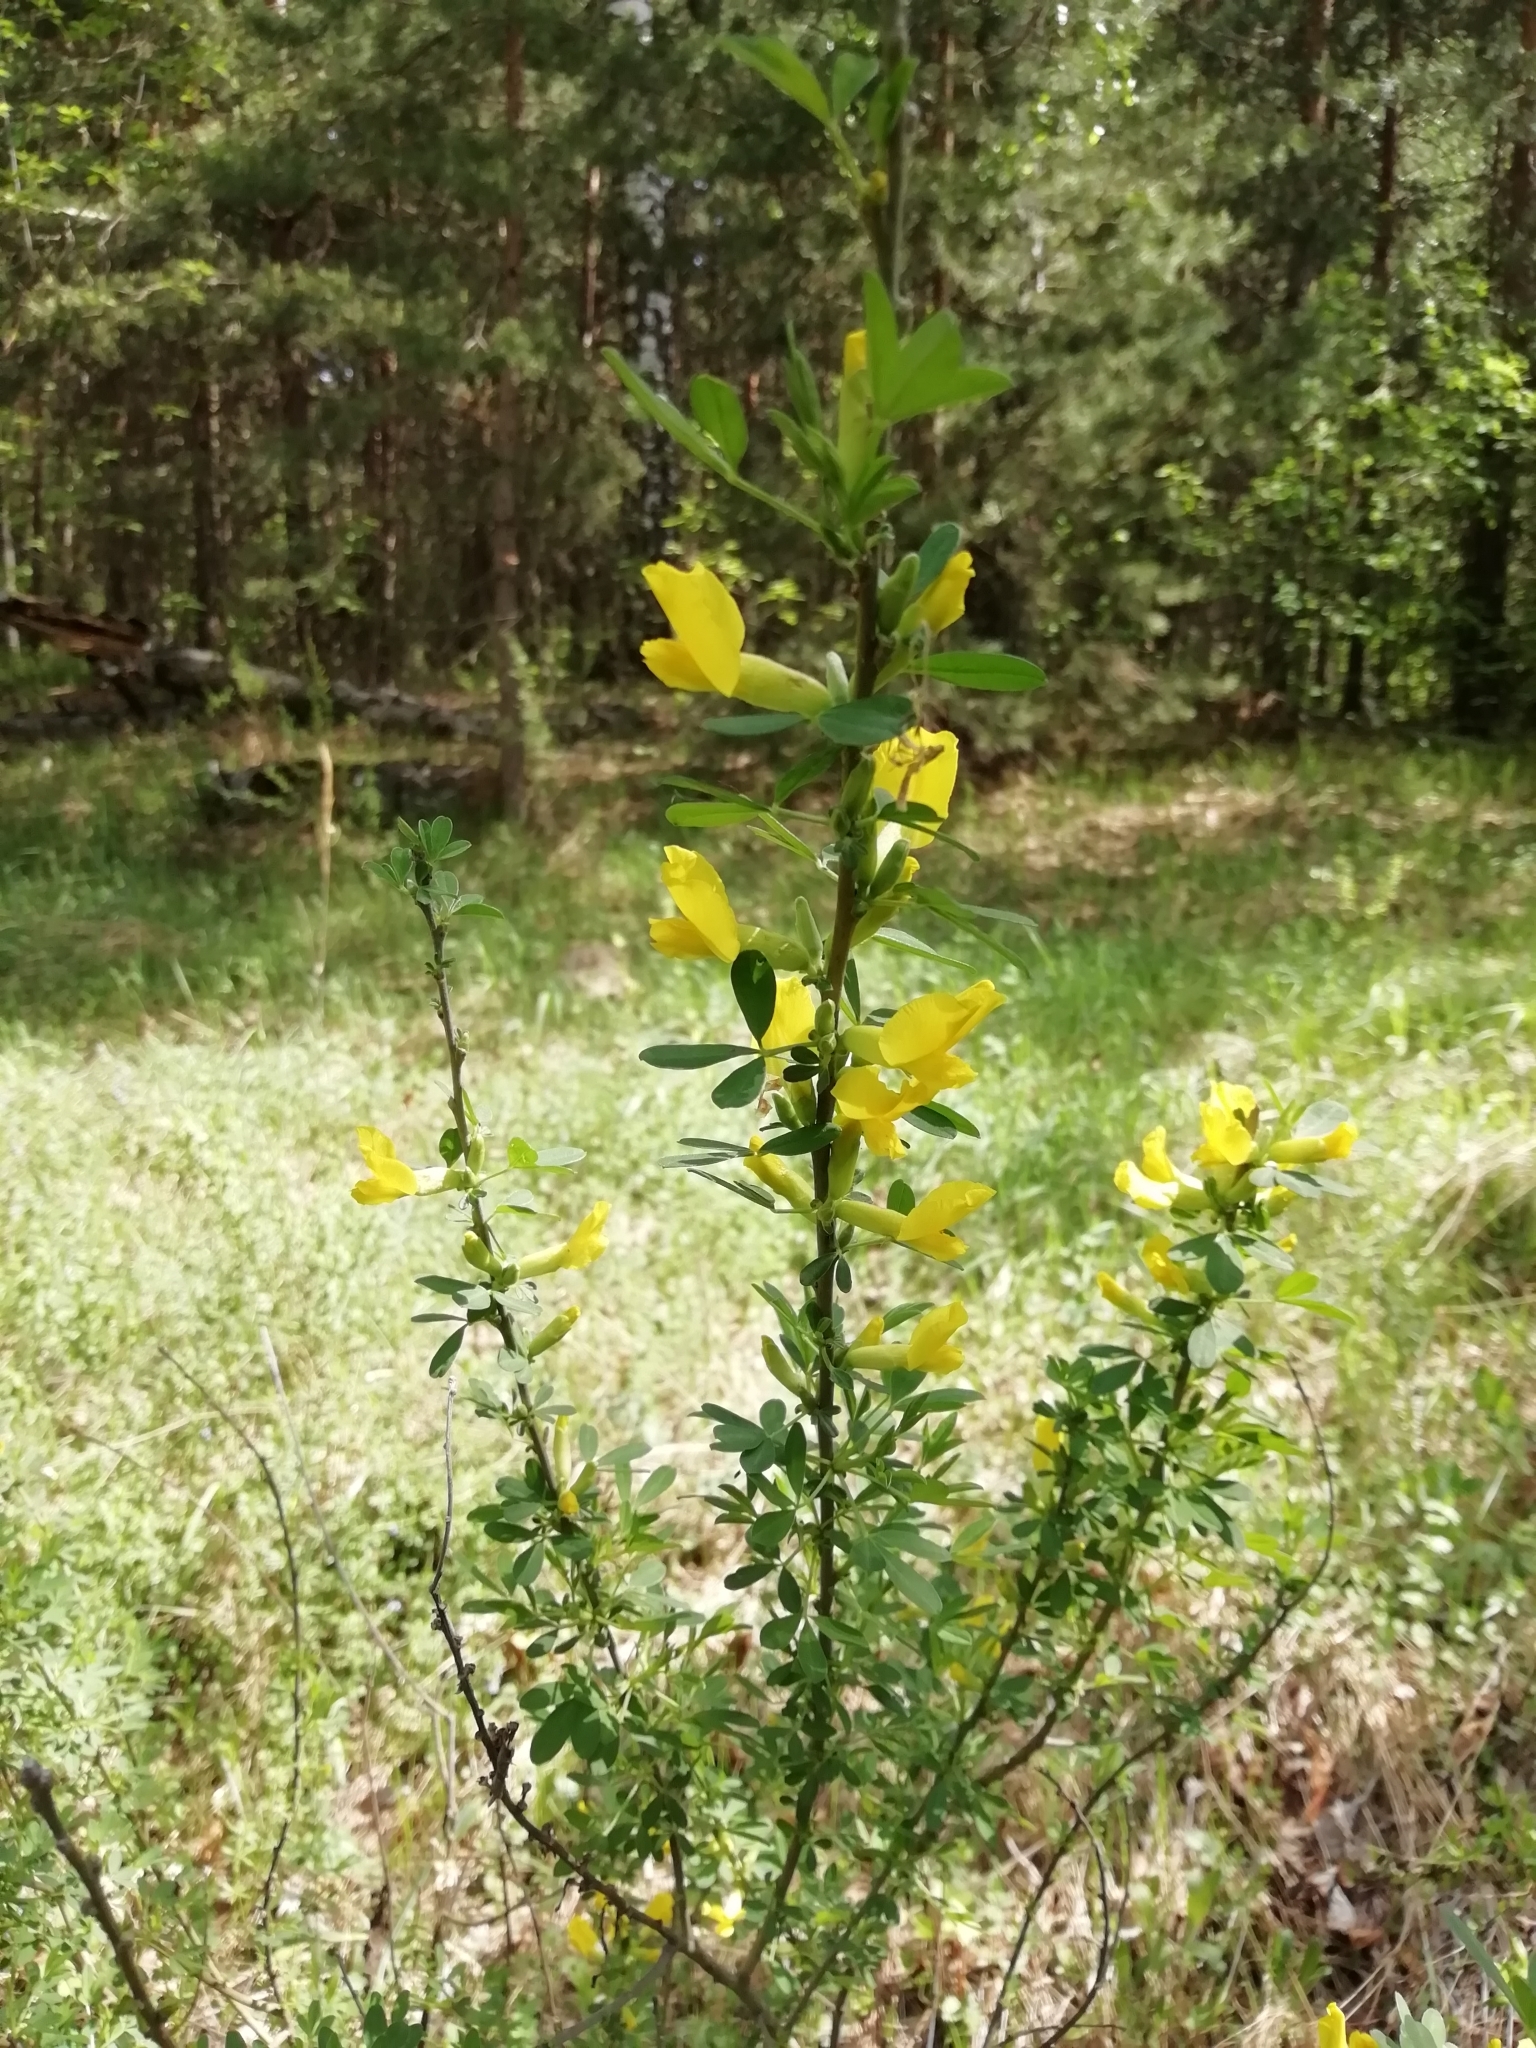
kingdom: Plantae
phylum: Tracheophyta
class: Magnoliopsida
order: Fabales
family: Fabaceae
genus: Chamaecytisus
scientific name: Chamaecytisus ruthenicus
